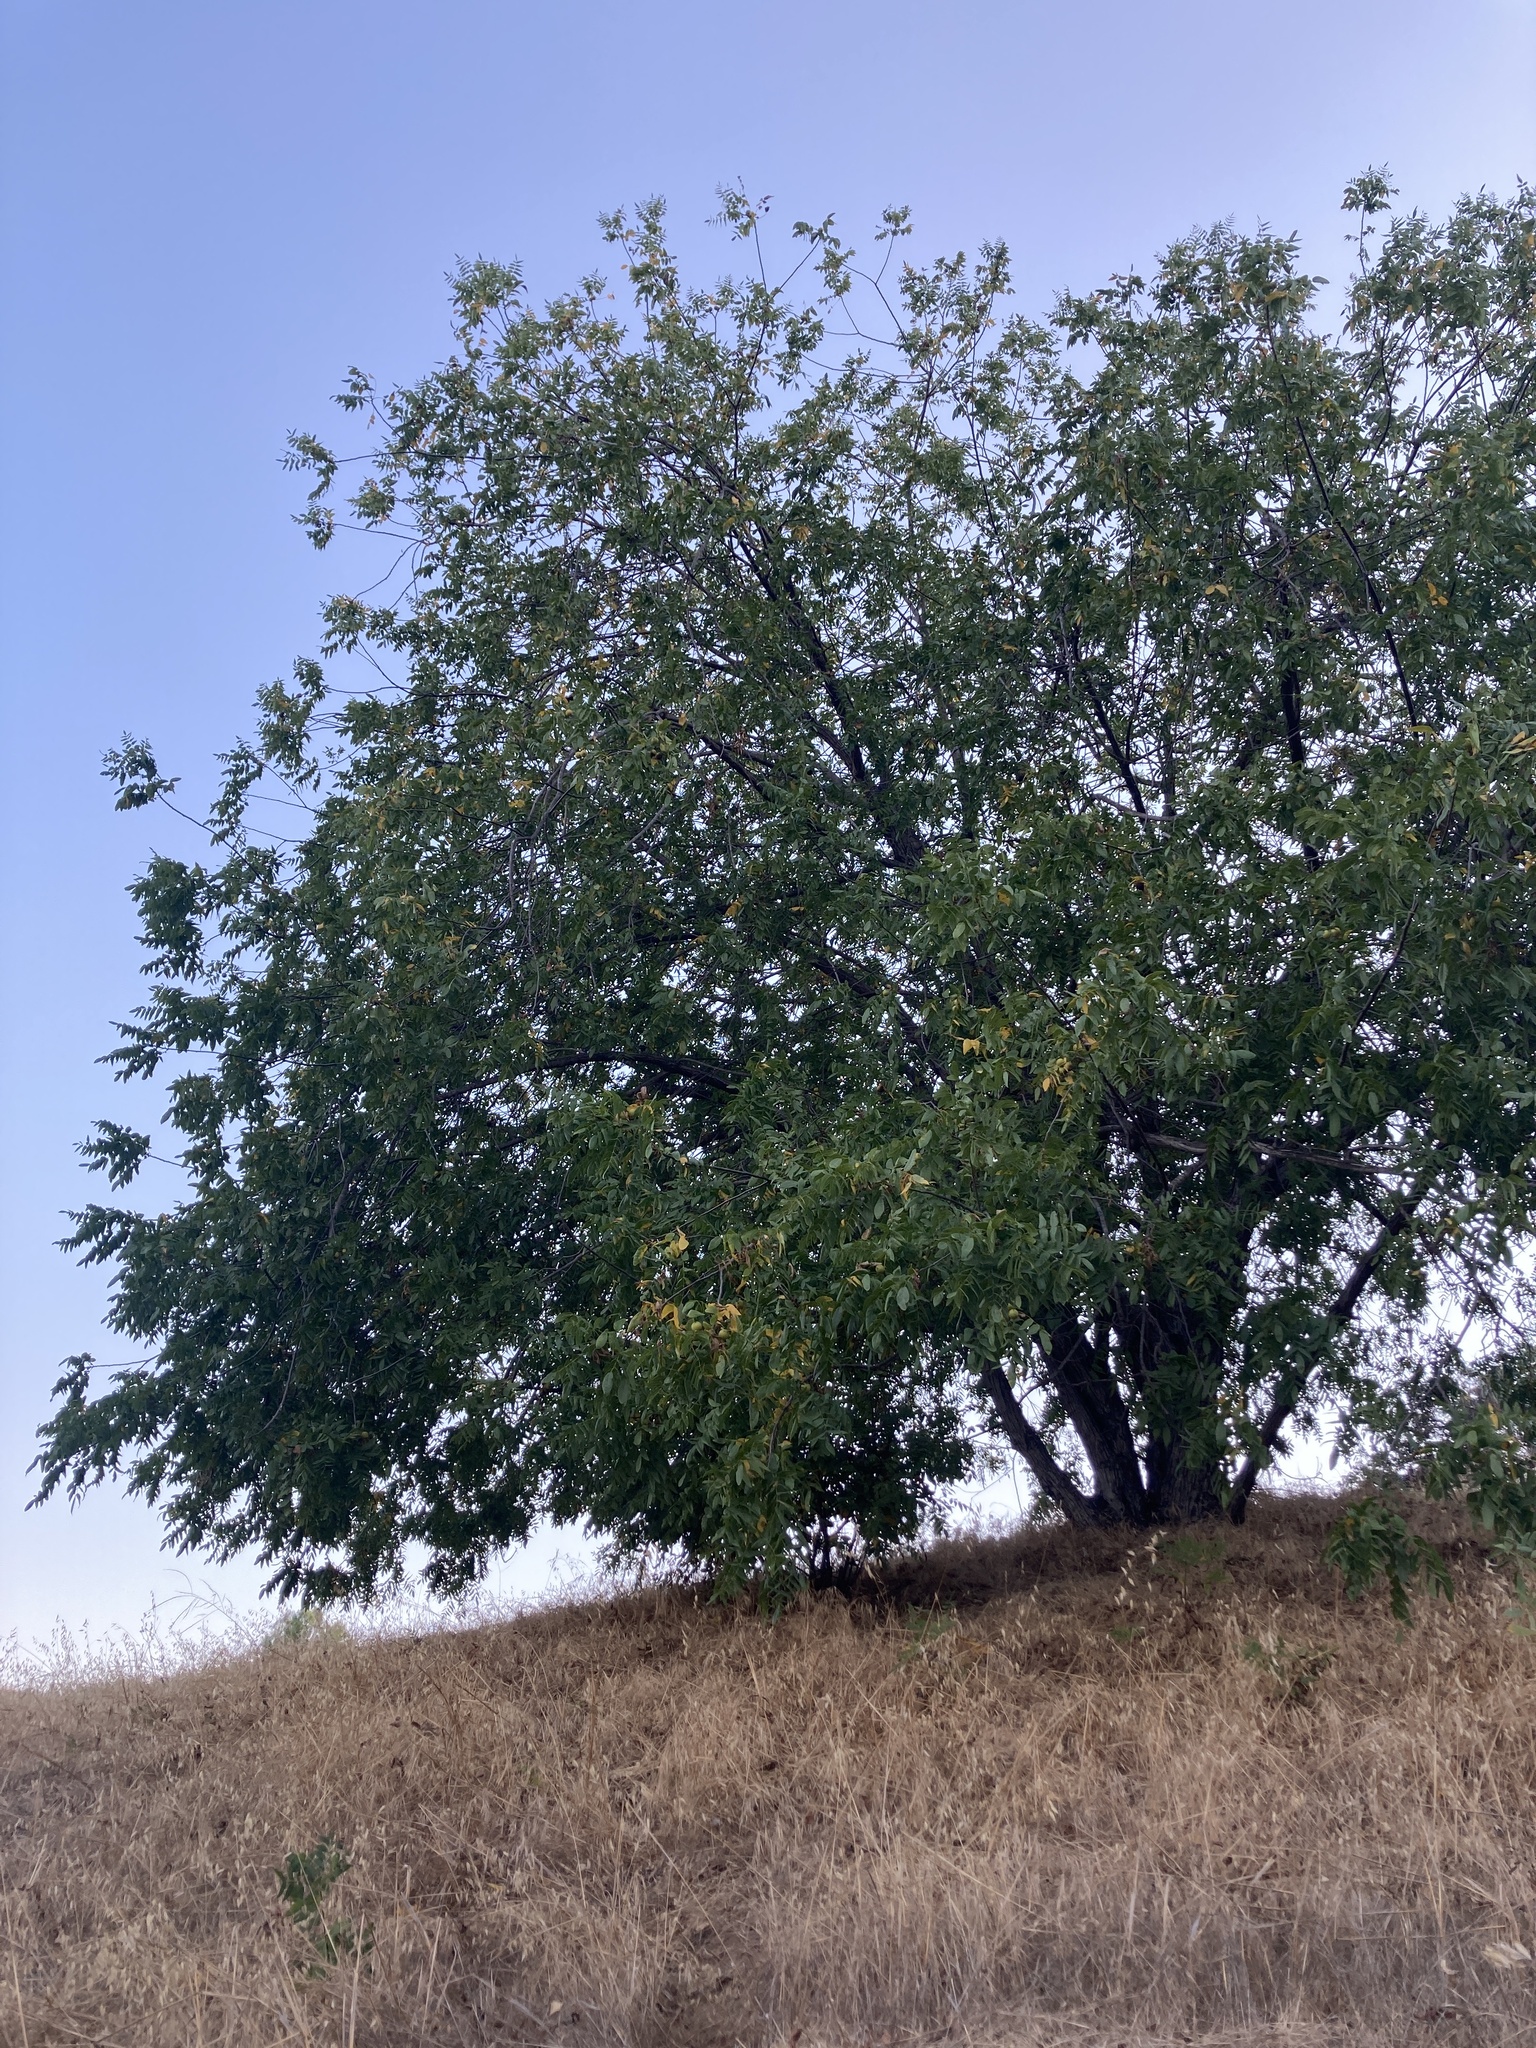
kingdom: Plantae
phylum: Tracheophyta
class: Magnoliopsida
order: Fagales
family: Juglandaceae
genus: Juglans
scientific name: Juglans californica
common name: Southern california black walnut
